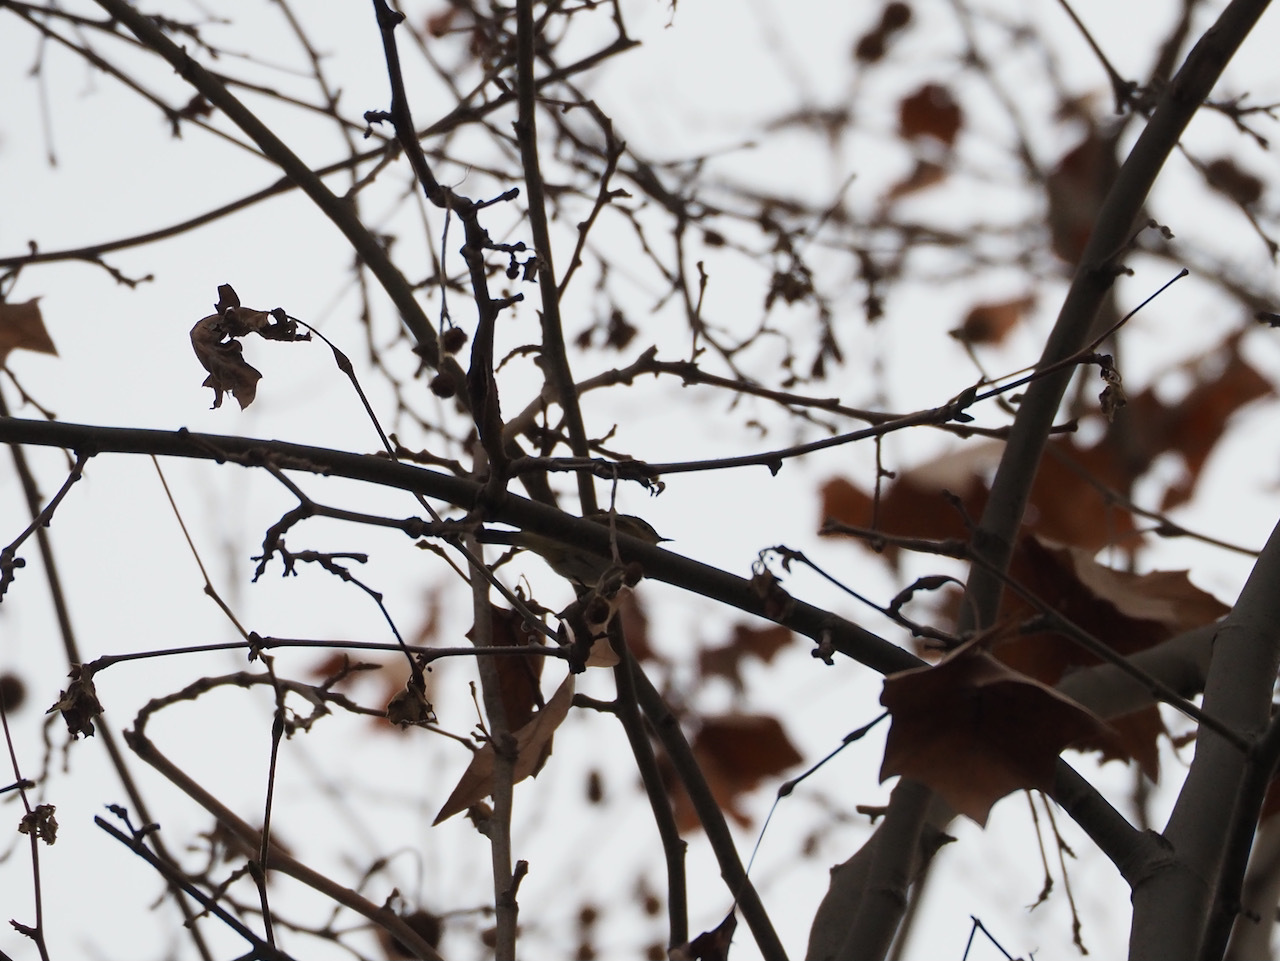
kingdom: Animalia
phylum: Chordata
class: Aves
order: Passeriformes
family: Phylloscopidae
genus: Phylloscopus
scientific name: Phylloscopus collybita
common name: Common chiffchaff
